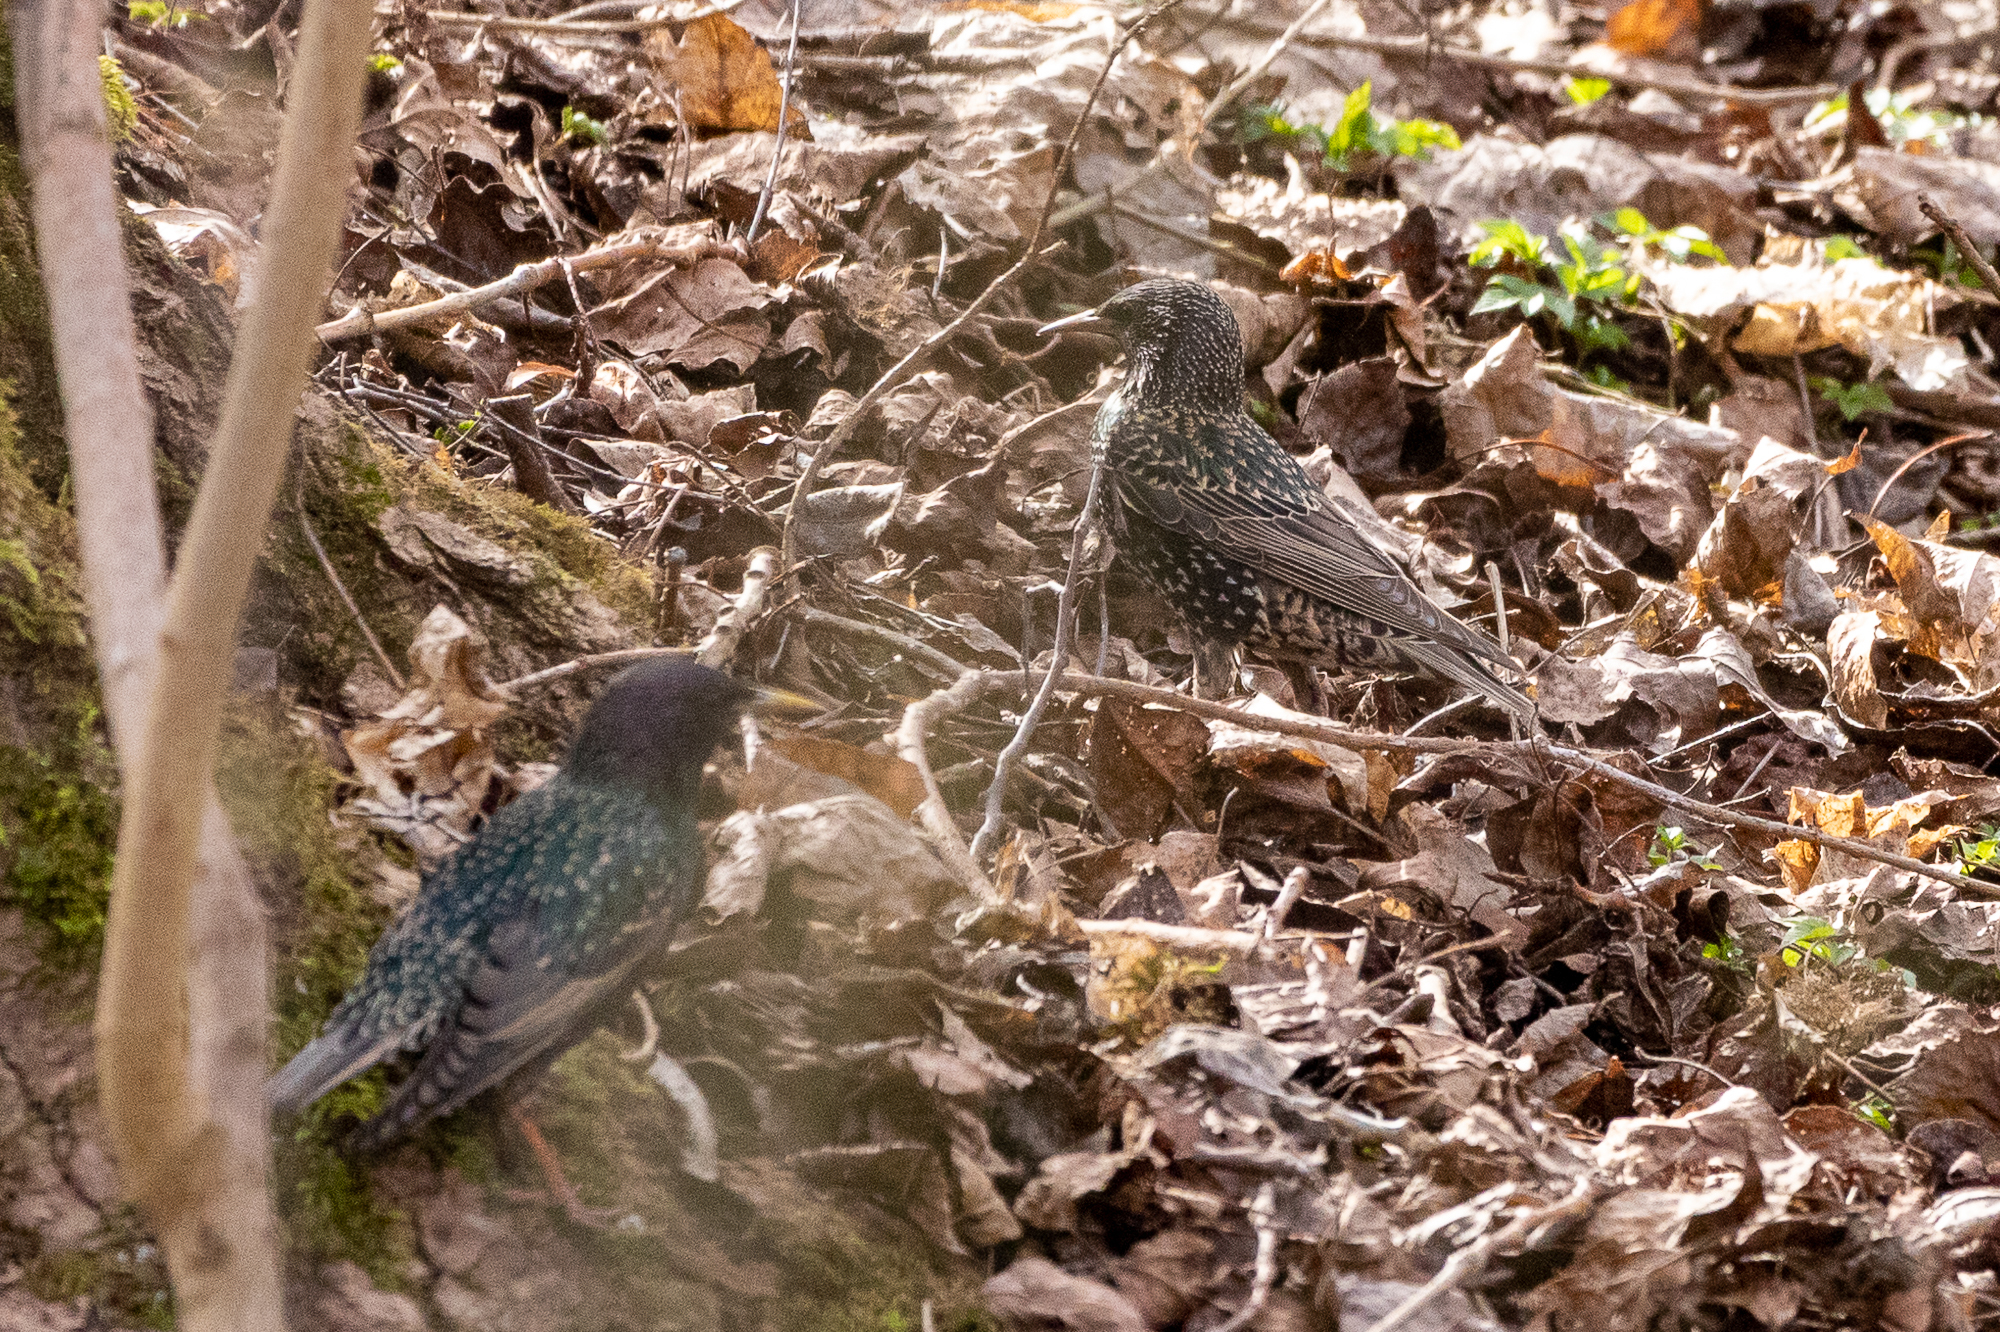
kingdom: Animalia
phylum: Chordata
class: Aves
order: Passeriformes
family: Sturnidae
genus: Sturnus
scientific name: Sturnus vulgaris
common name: Common starling
